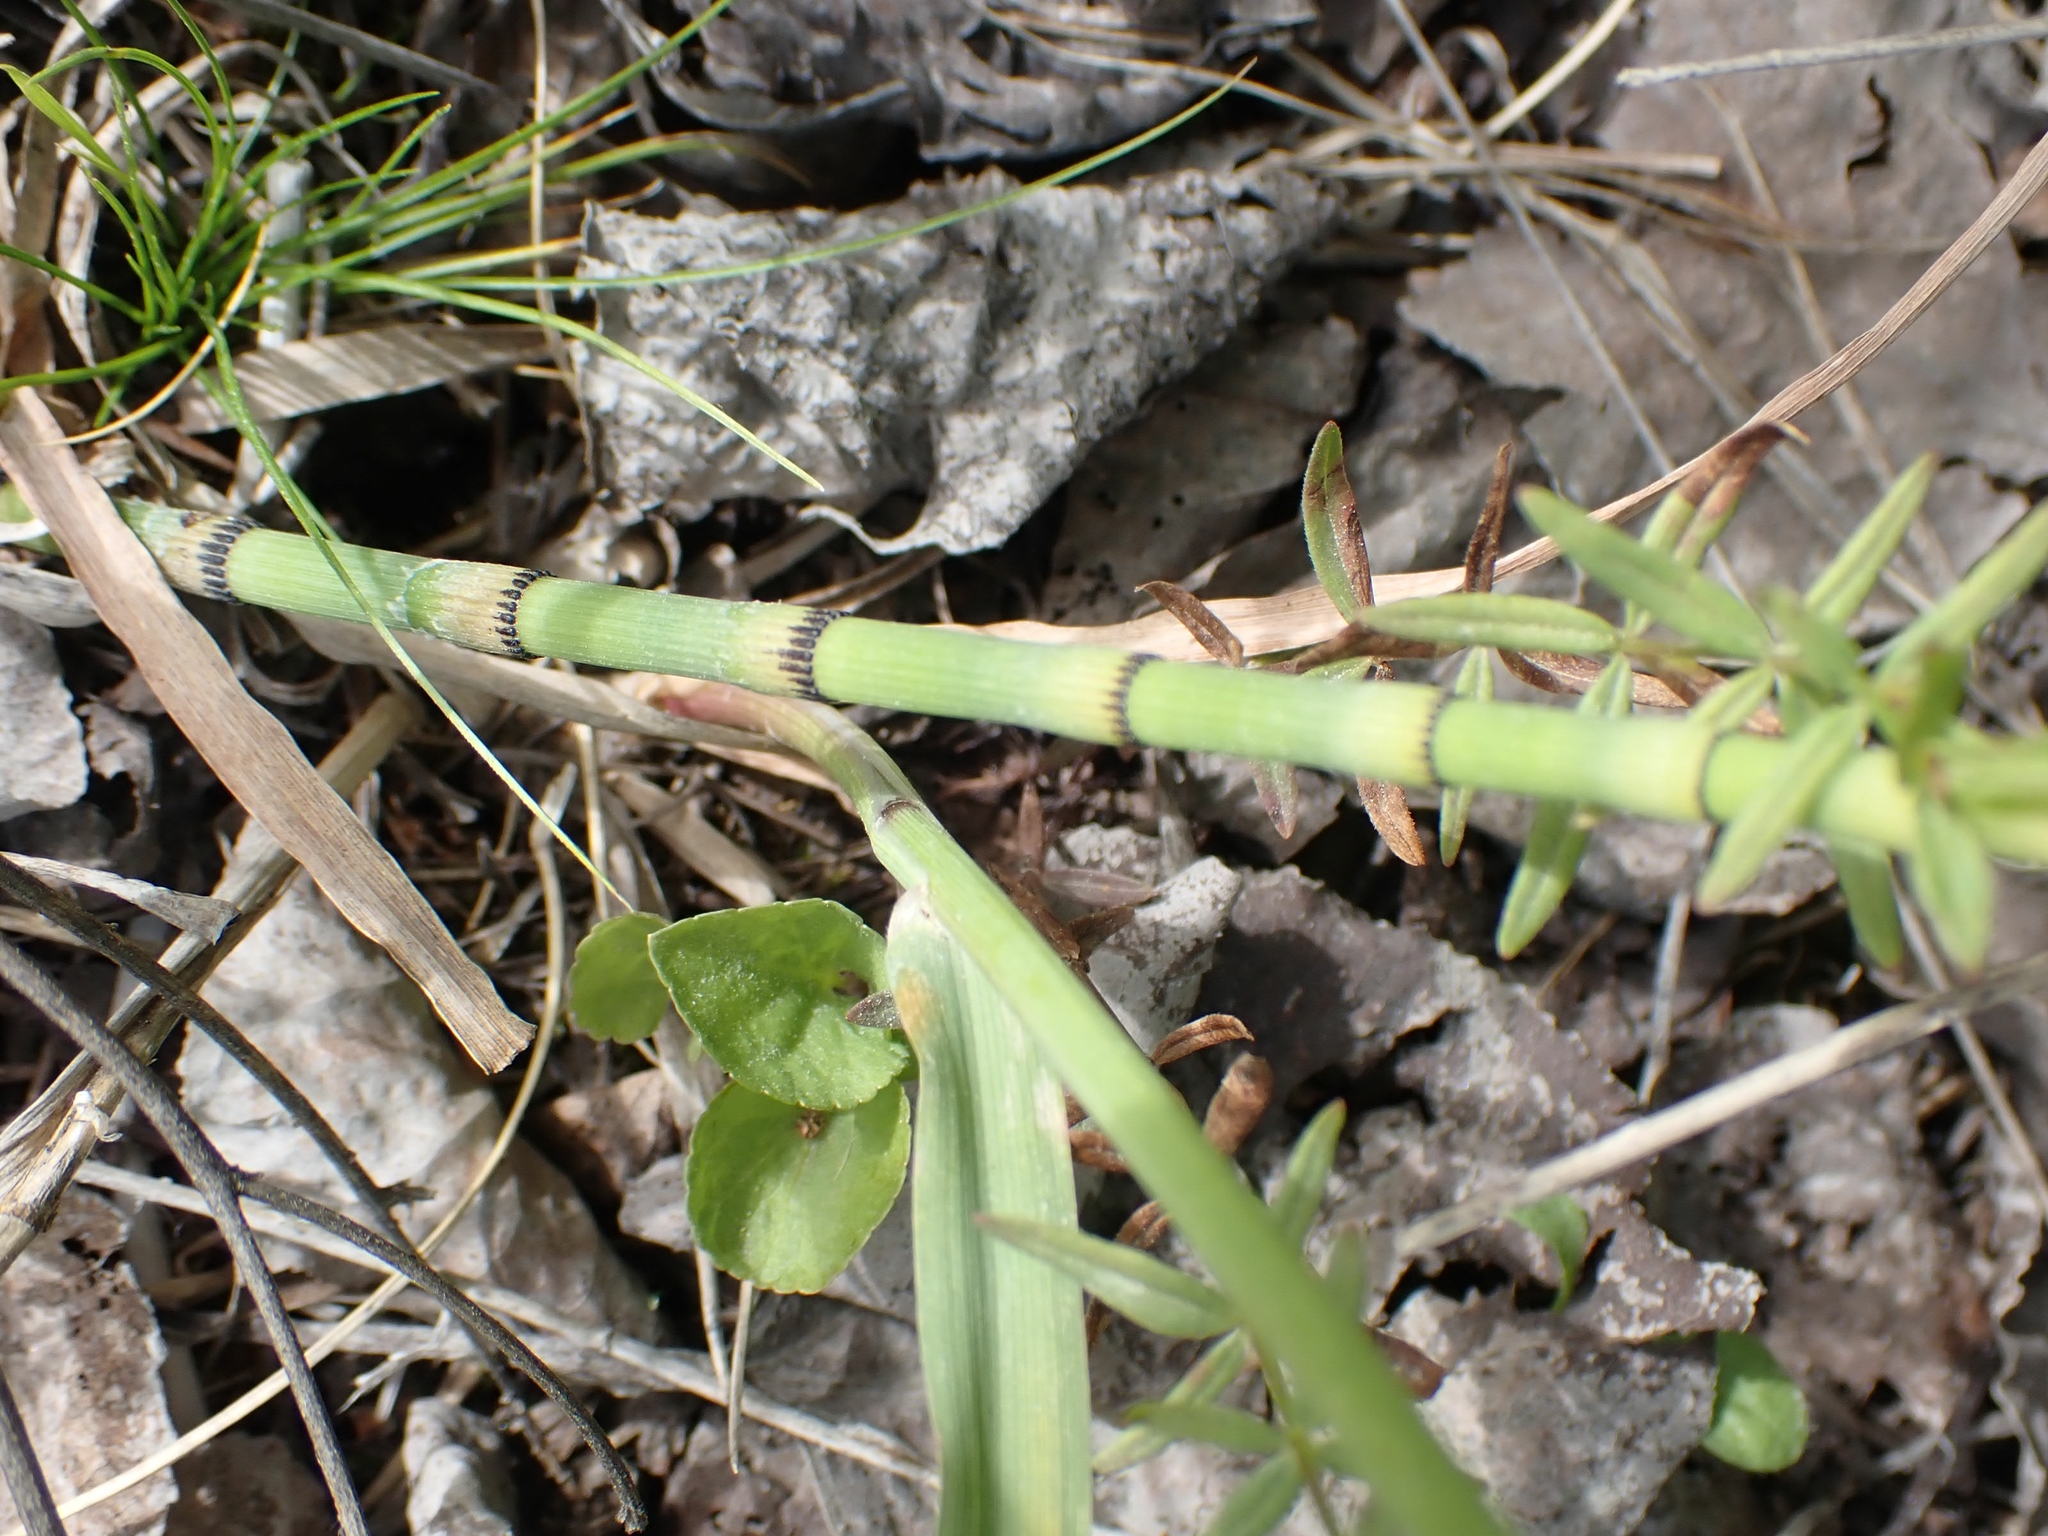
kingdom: Plantae
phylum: Tracheophyta
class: Polypodiopsida
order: Equisetales
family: Equisetaceae
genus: Equisetum
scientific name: Equisetum praealtum
